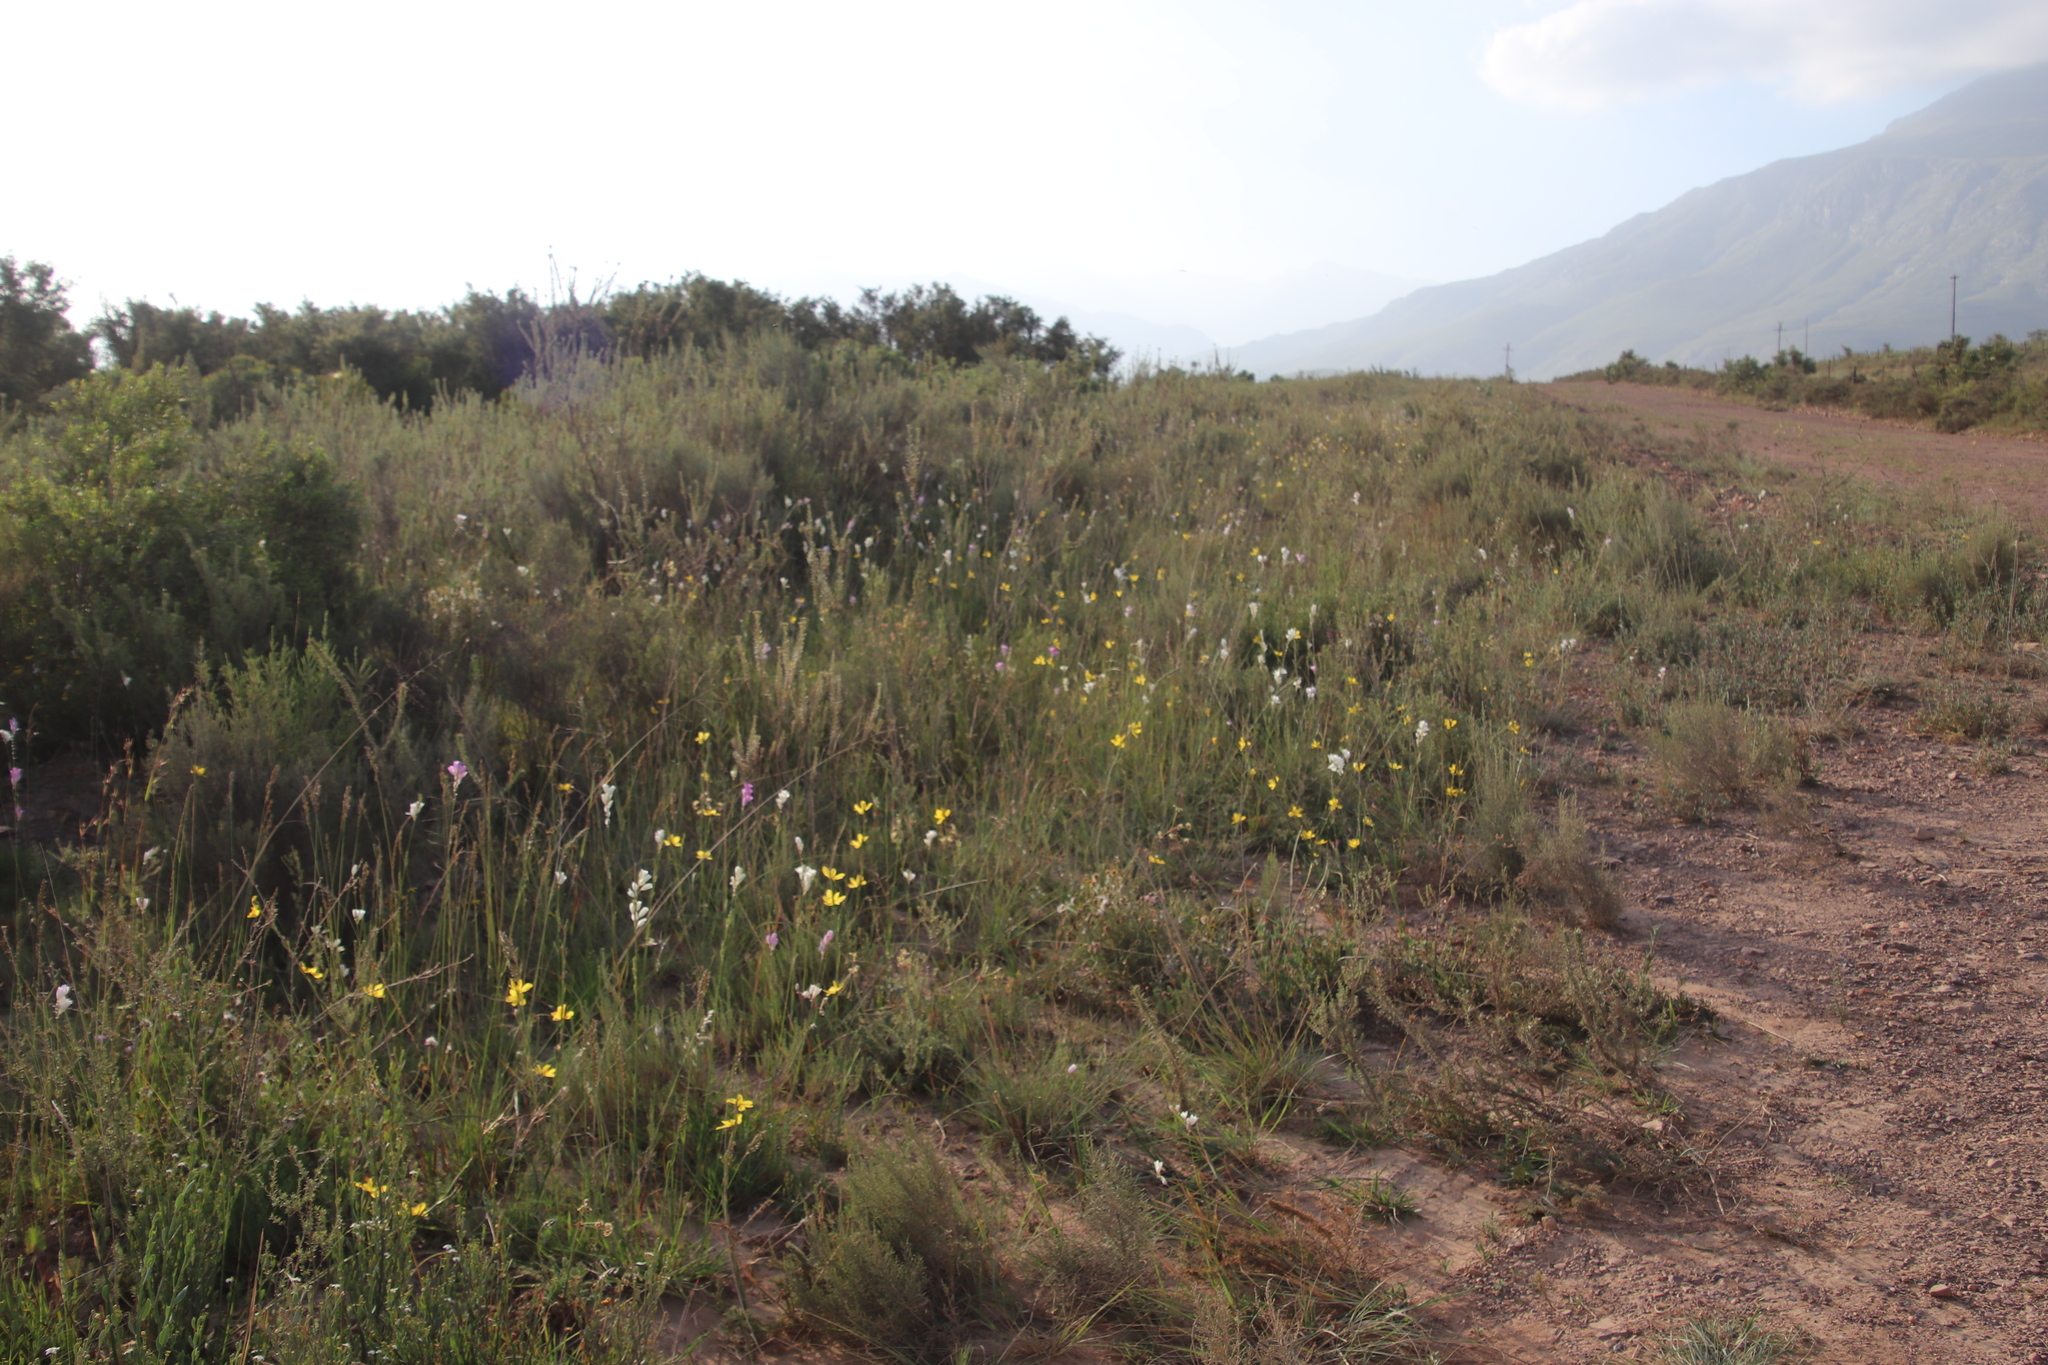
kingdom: Plantae
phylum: Tracheophyta
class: Liliopsida
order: Asparagales
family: Iridaceae
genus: Moraea
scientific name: Moraea lewisiae
